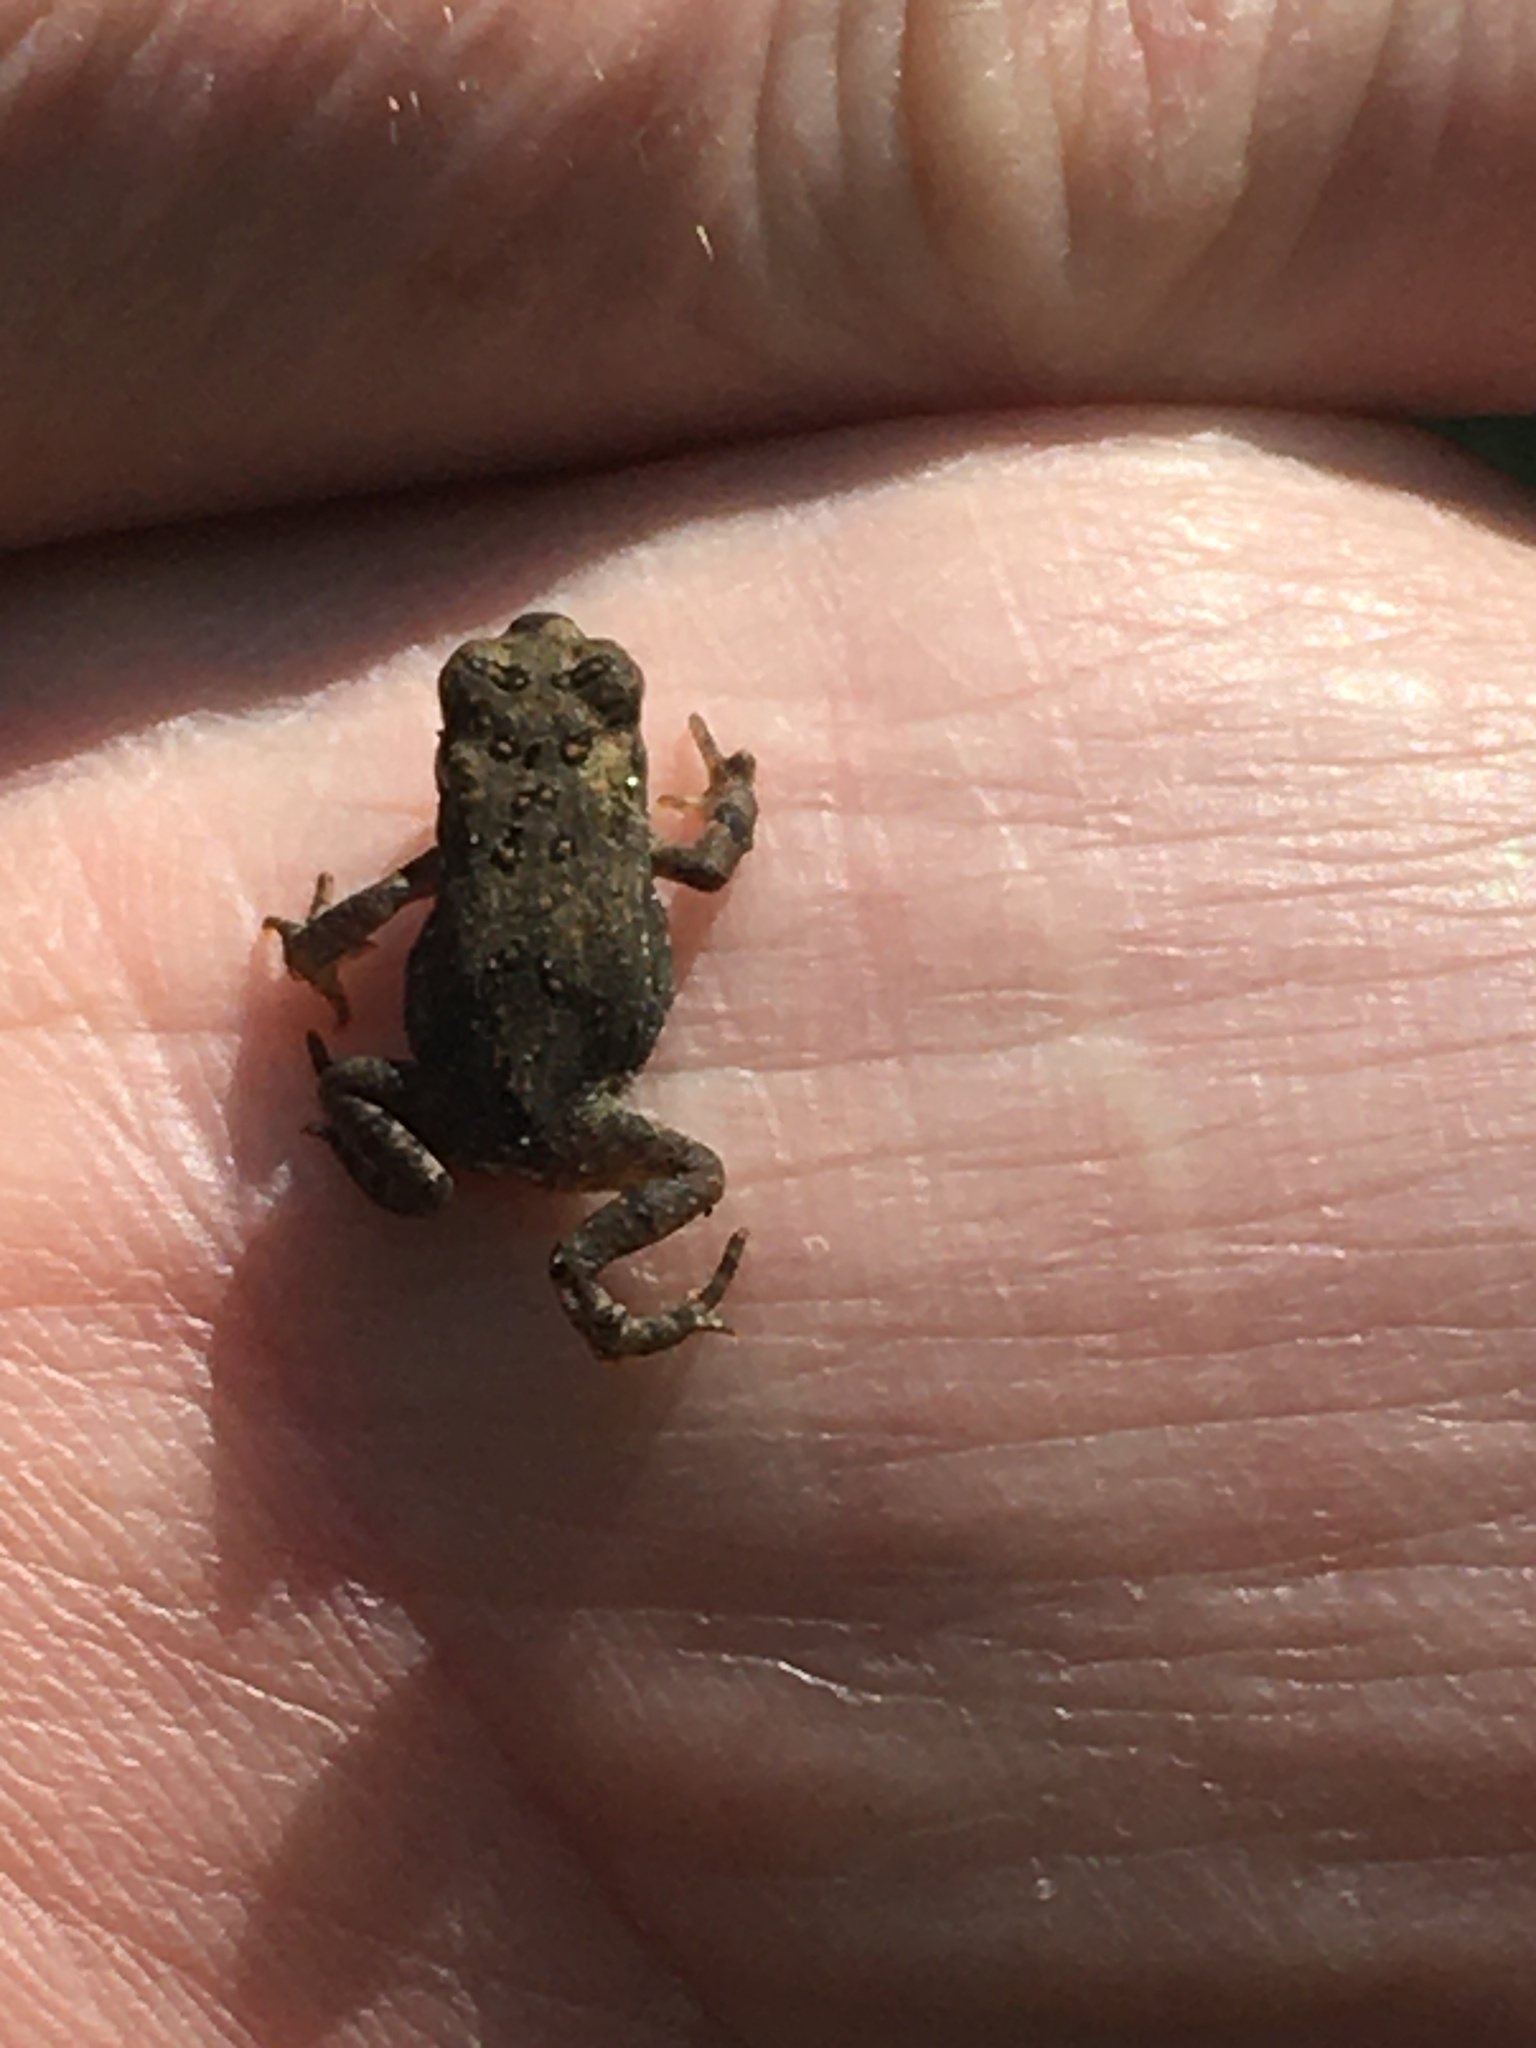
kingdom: Animalia
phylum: Chordata
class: Amphibia
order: Anura
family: Bufonidae
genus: Anaxyrus
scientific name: Anaxyrus americanus
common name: American toad
